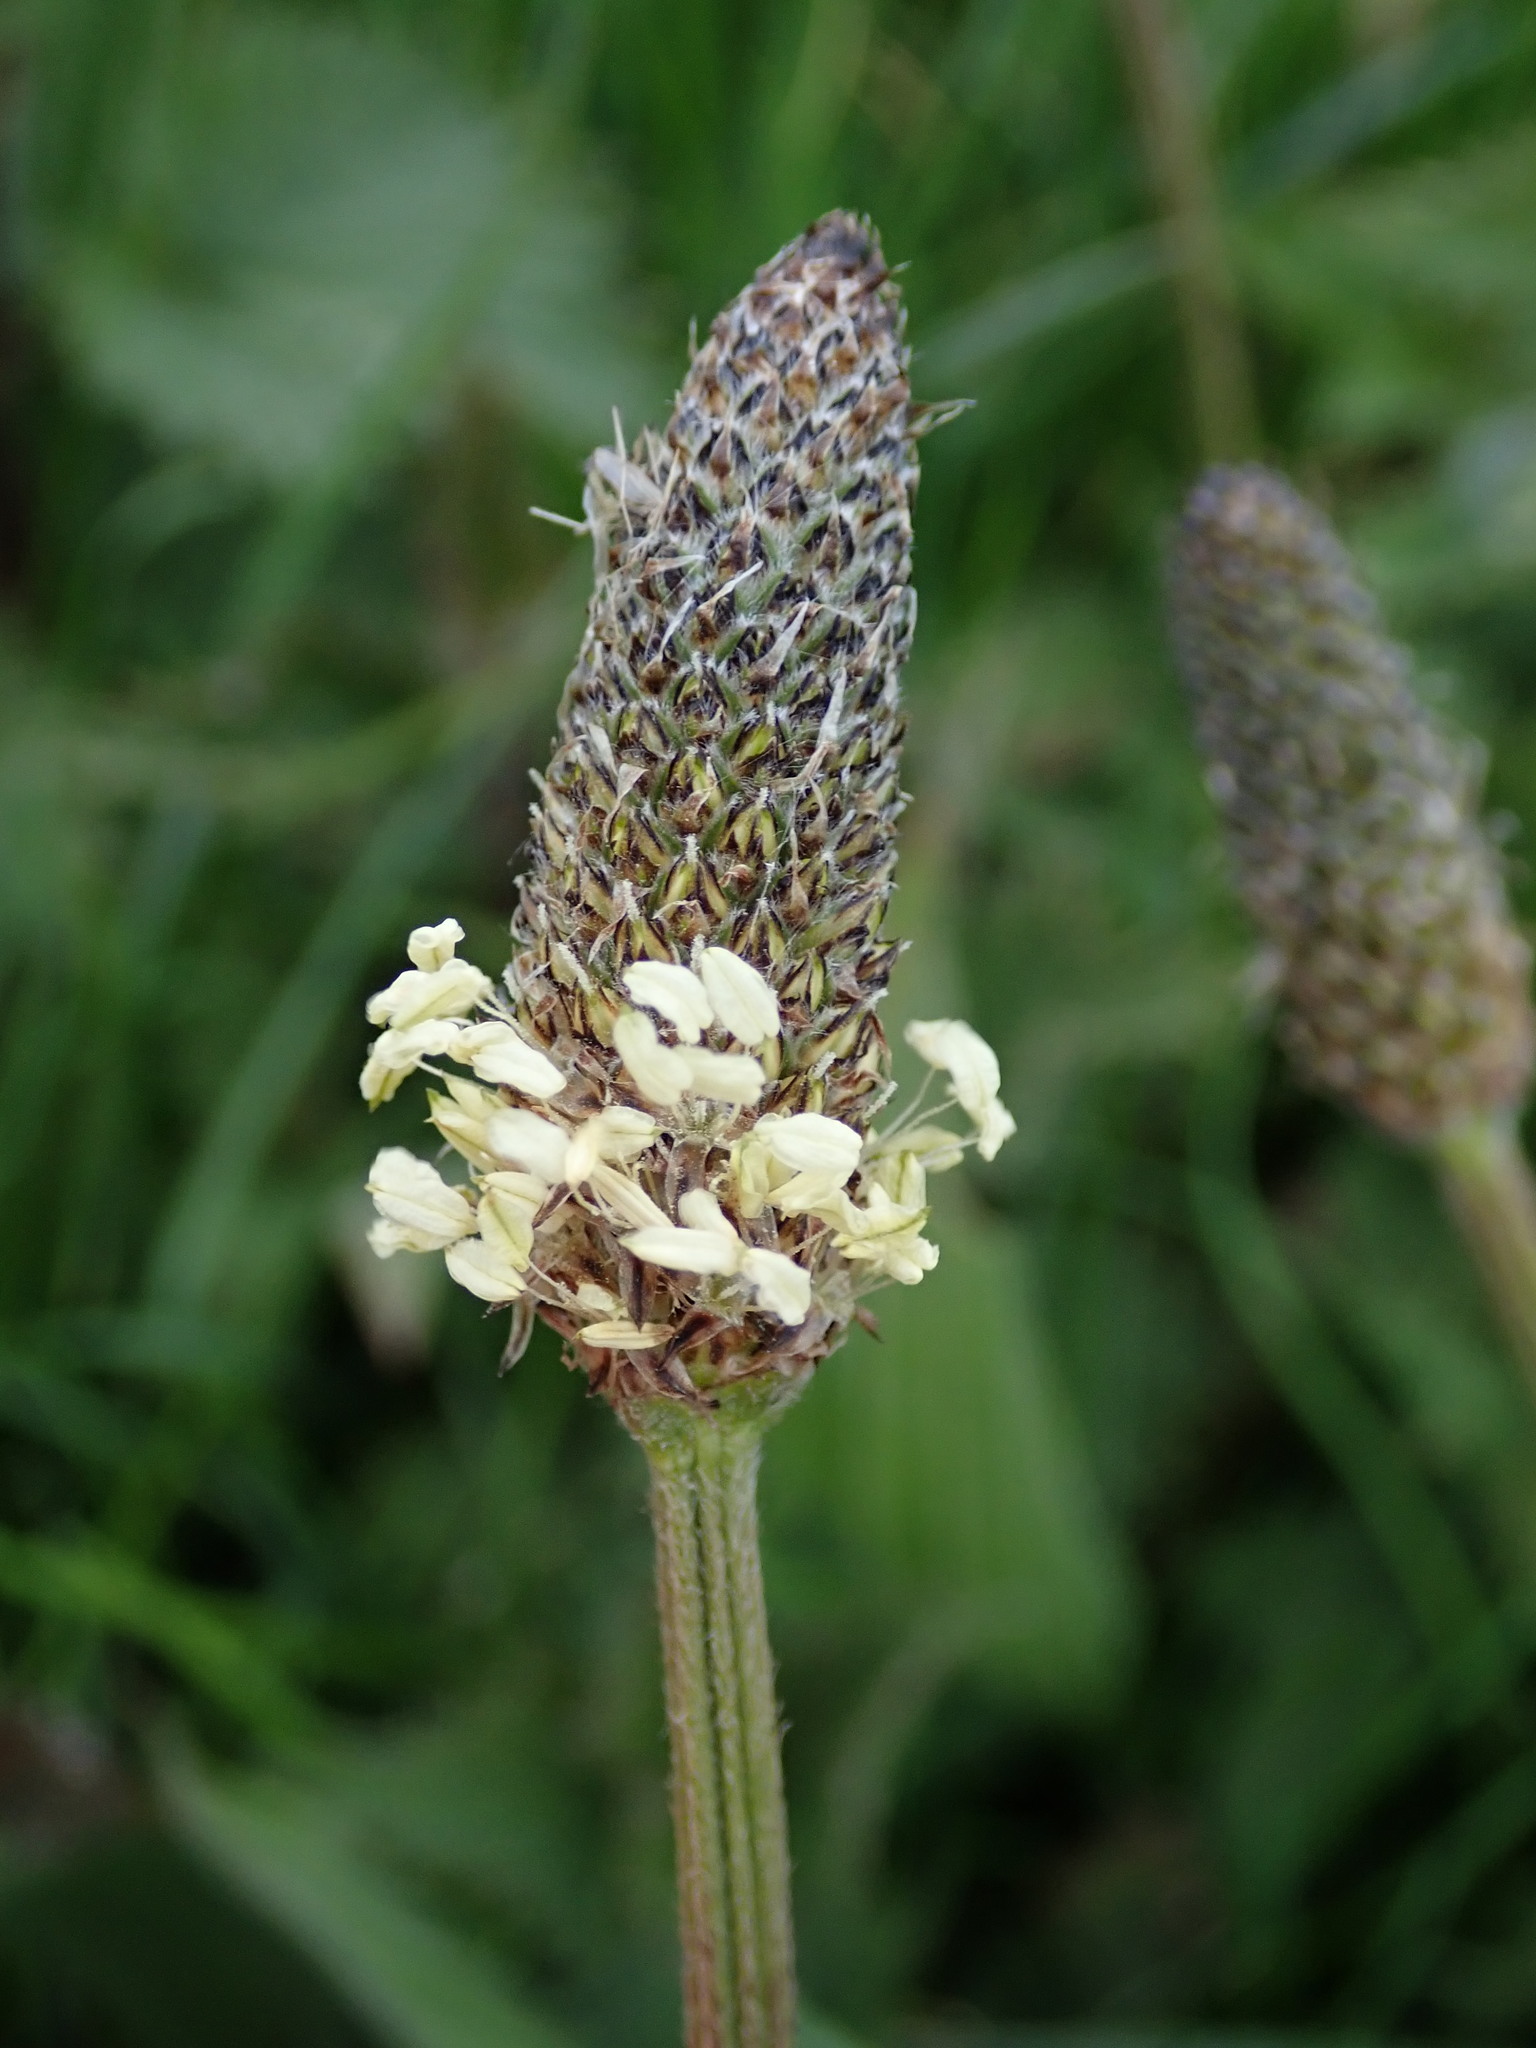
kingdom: Plantae
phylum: Tracheophyta
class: Magnoliopsida
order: Lamiales
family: Plantaginaceae
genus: Plantago
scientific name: Plantago lanceolata
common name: Ribwort plantain
